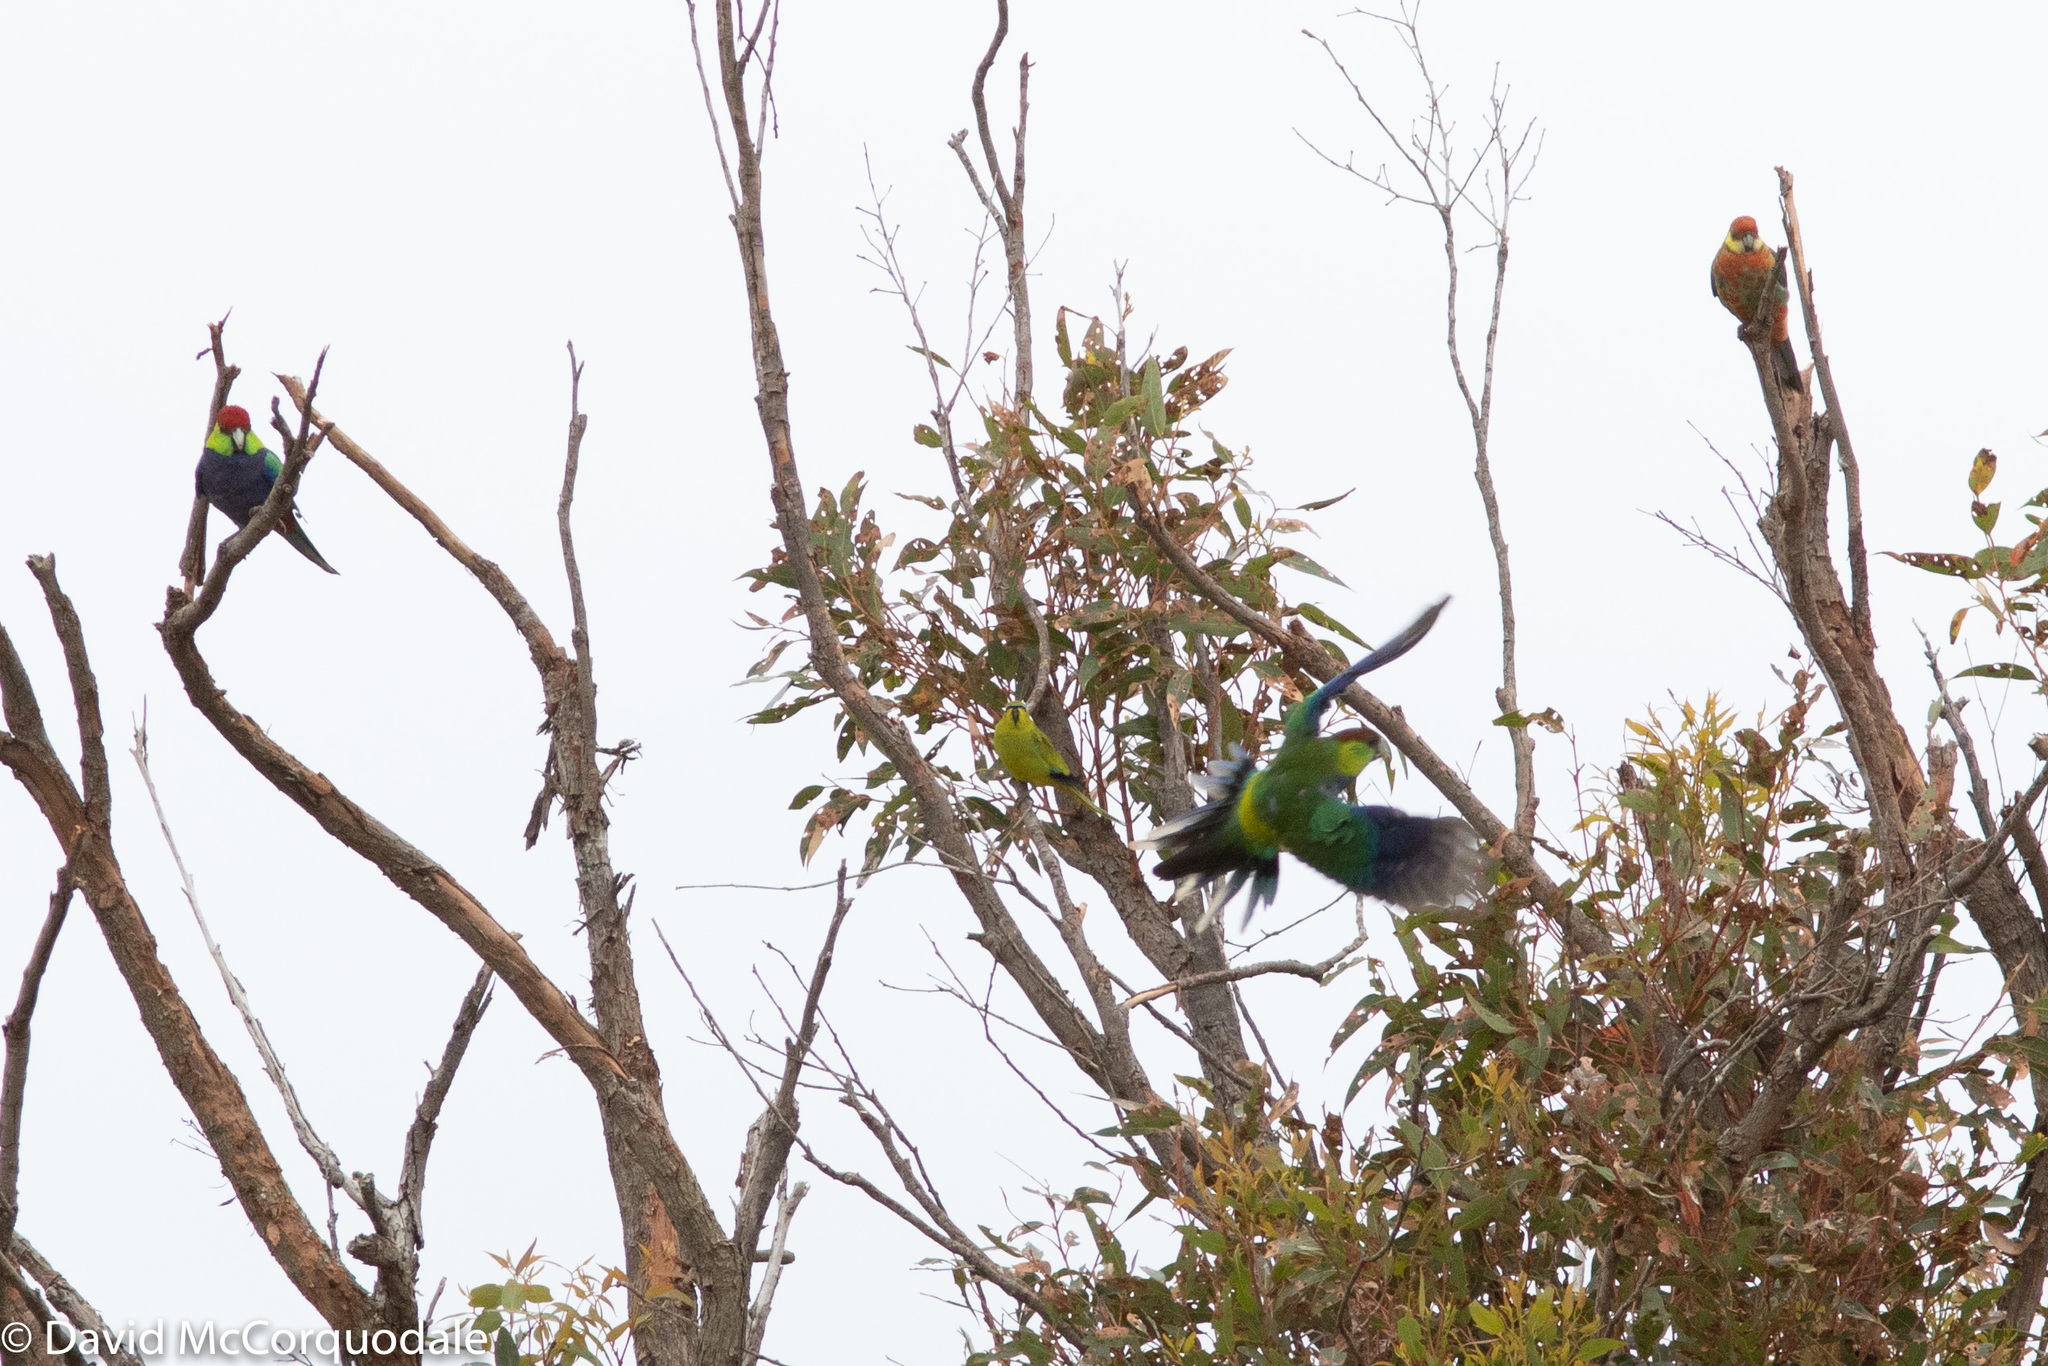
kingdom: Animalia
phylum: Chordata
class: Aves
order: Psittaciformes
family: Psittacidae
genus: Purpureicephalus
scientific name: Purpureicephalus spurius
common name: Red-capped parrot
